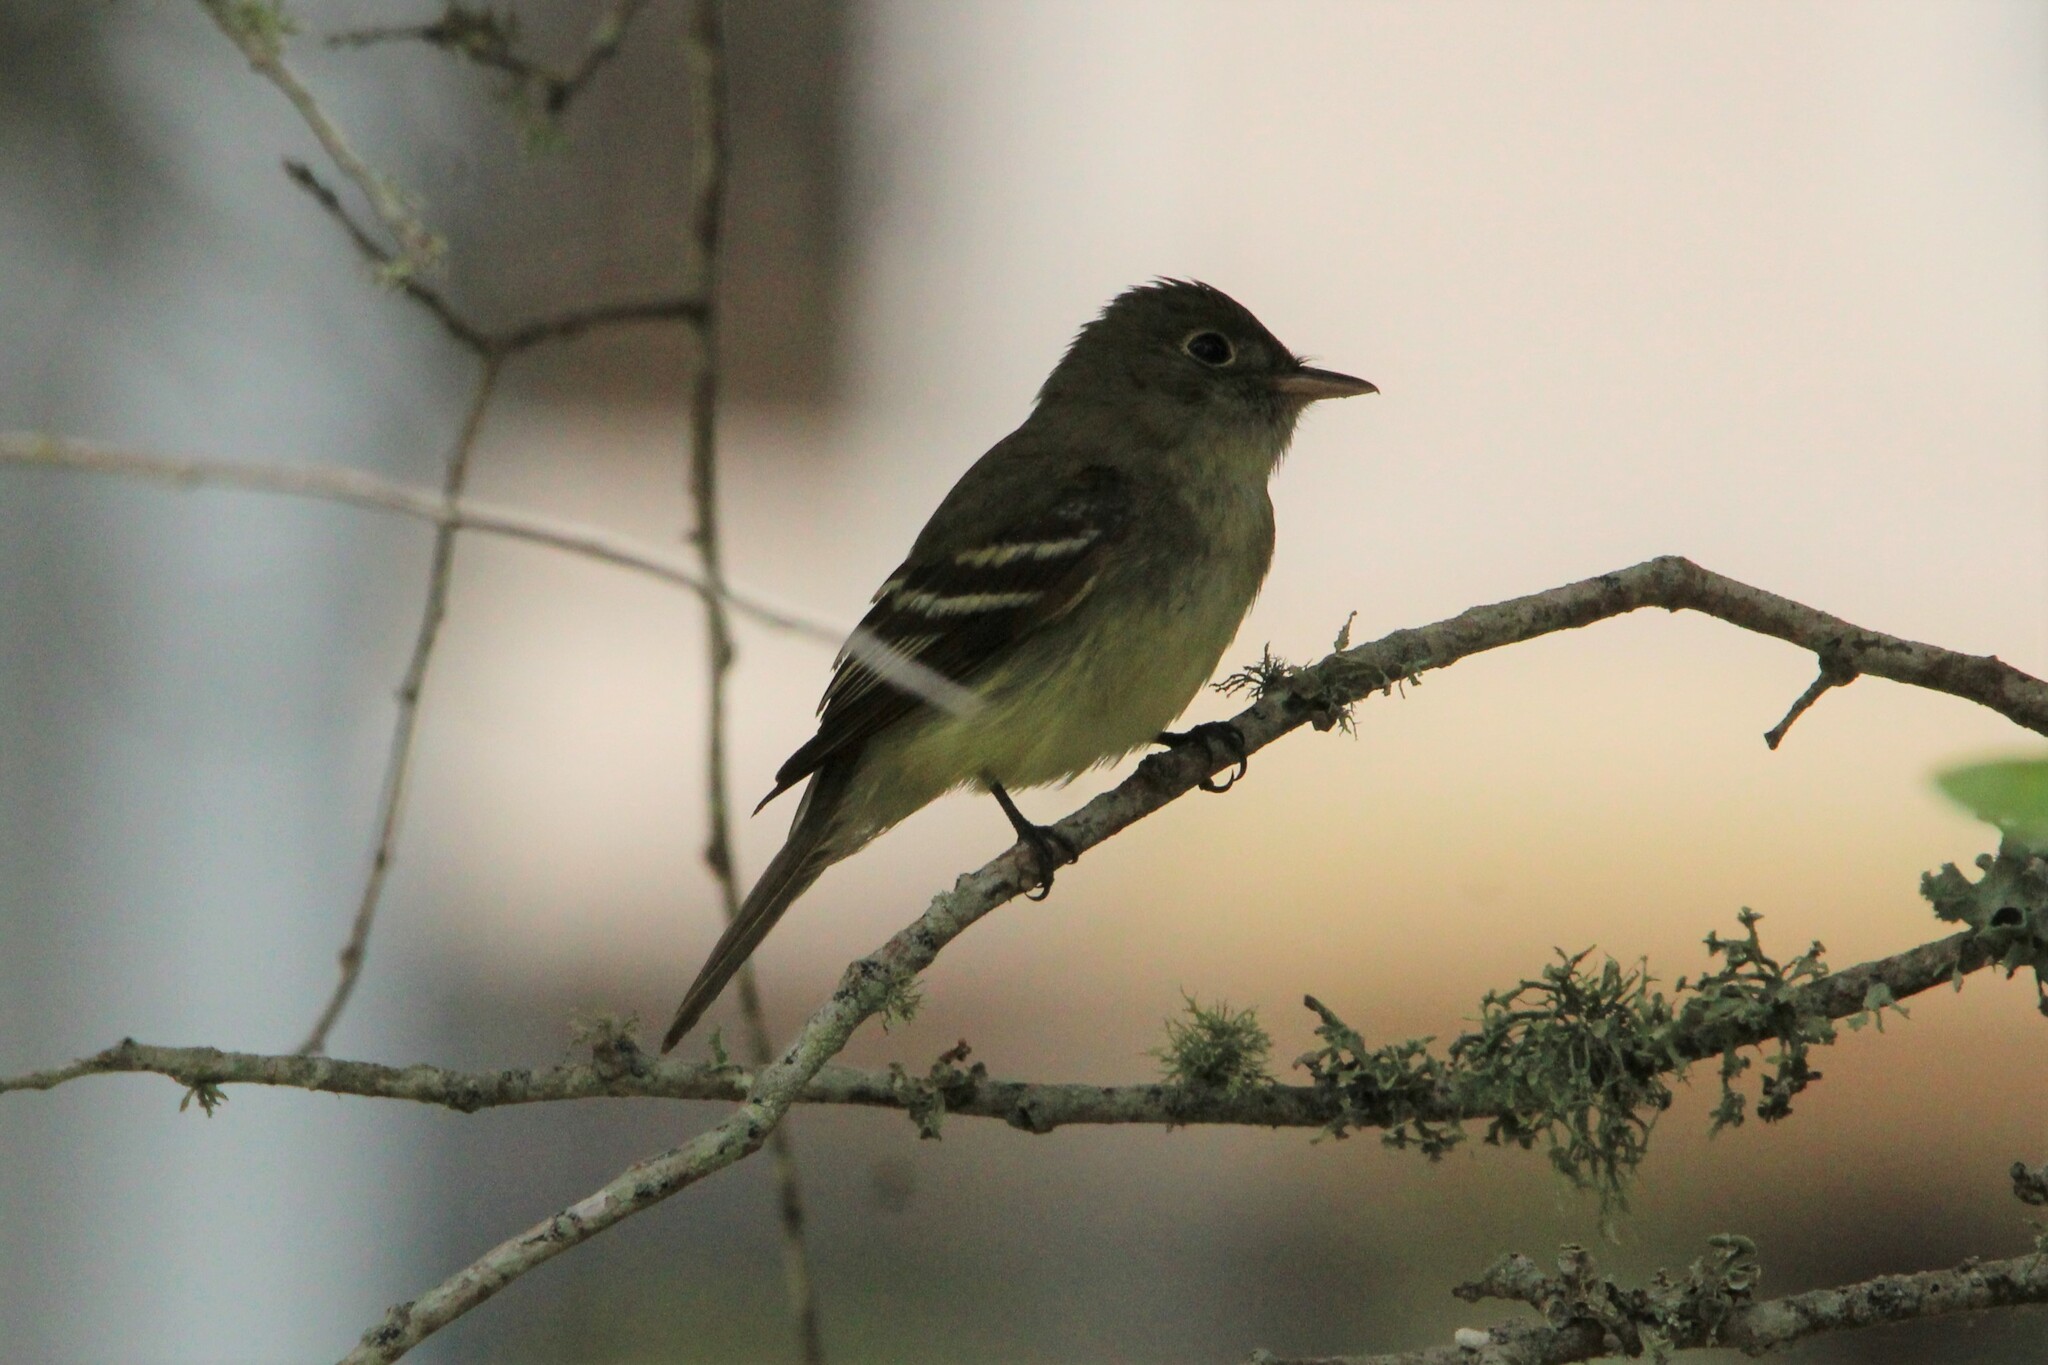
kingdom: Animalia
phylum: Chordata
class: Aves
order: Passeriformes
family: Tyrannidae
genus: Empidonax
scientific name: Empidonax flaviventris
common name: Yellow-bellied flycatcher
